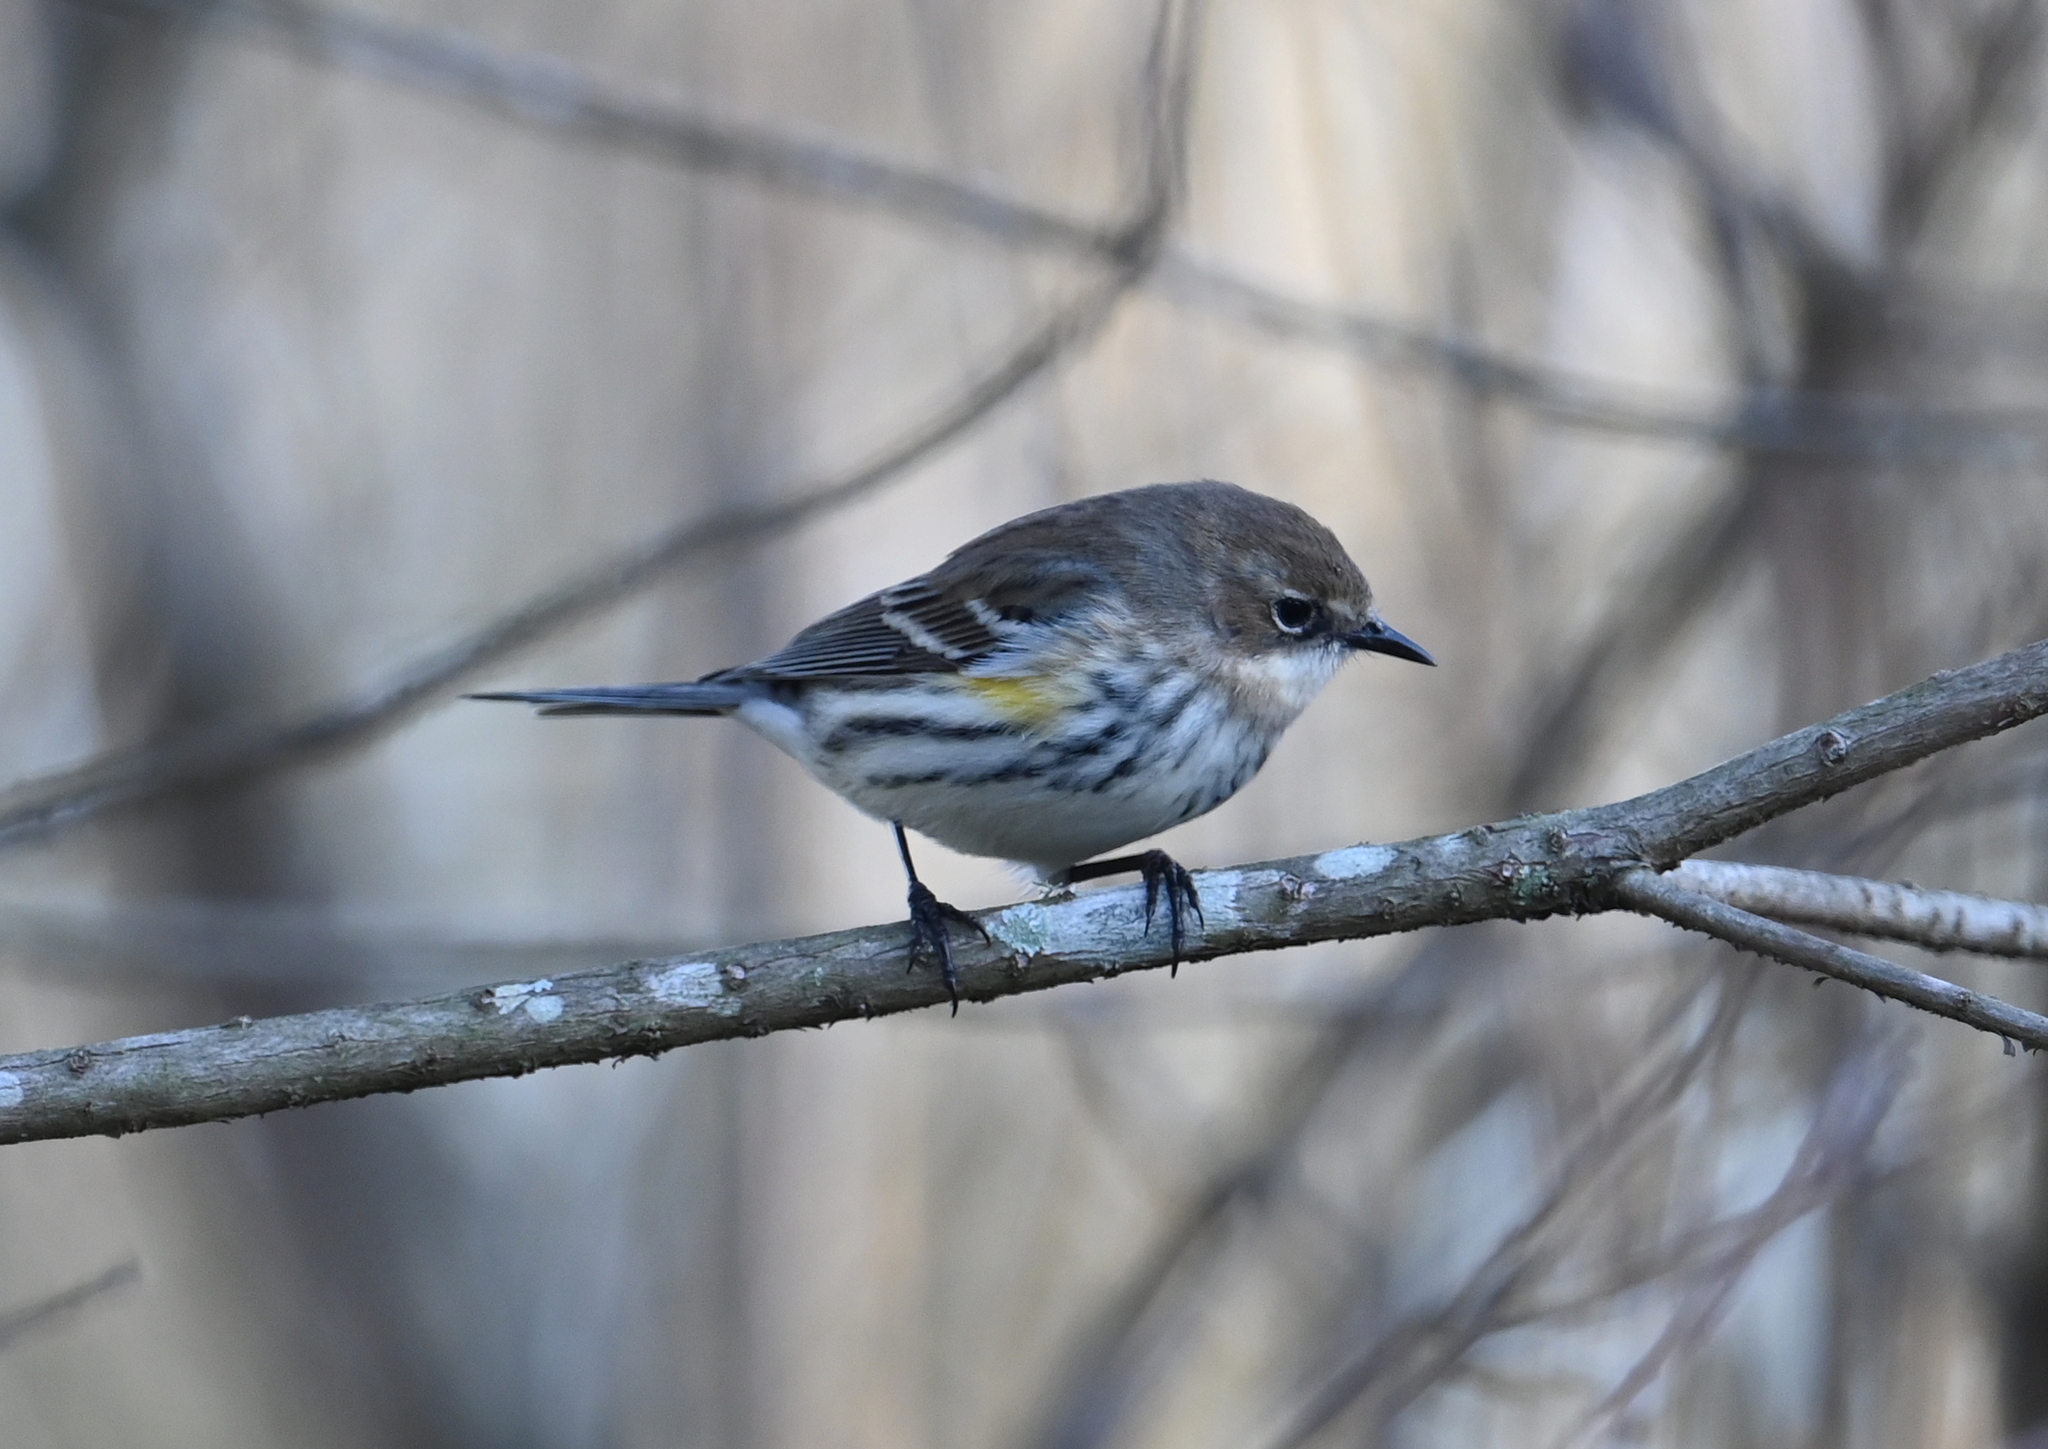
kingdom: Animalia
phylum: Chordata
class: Aves
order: Passeriformes
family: Parulidae
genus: Setophaga
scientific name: Setophaga coronata
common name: Myrtle warbler
